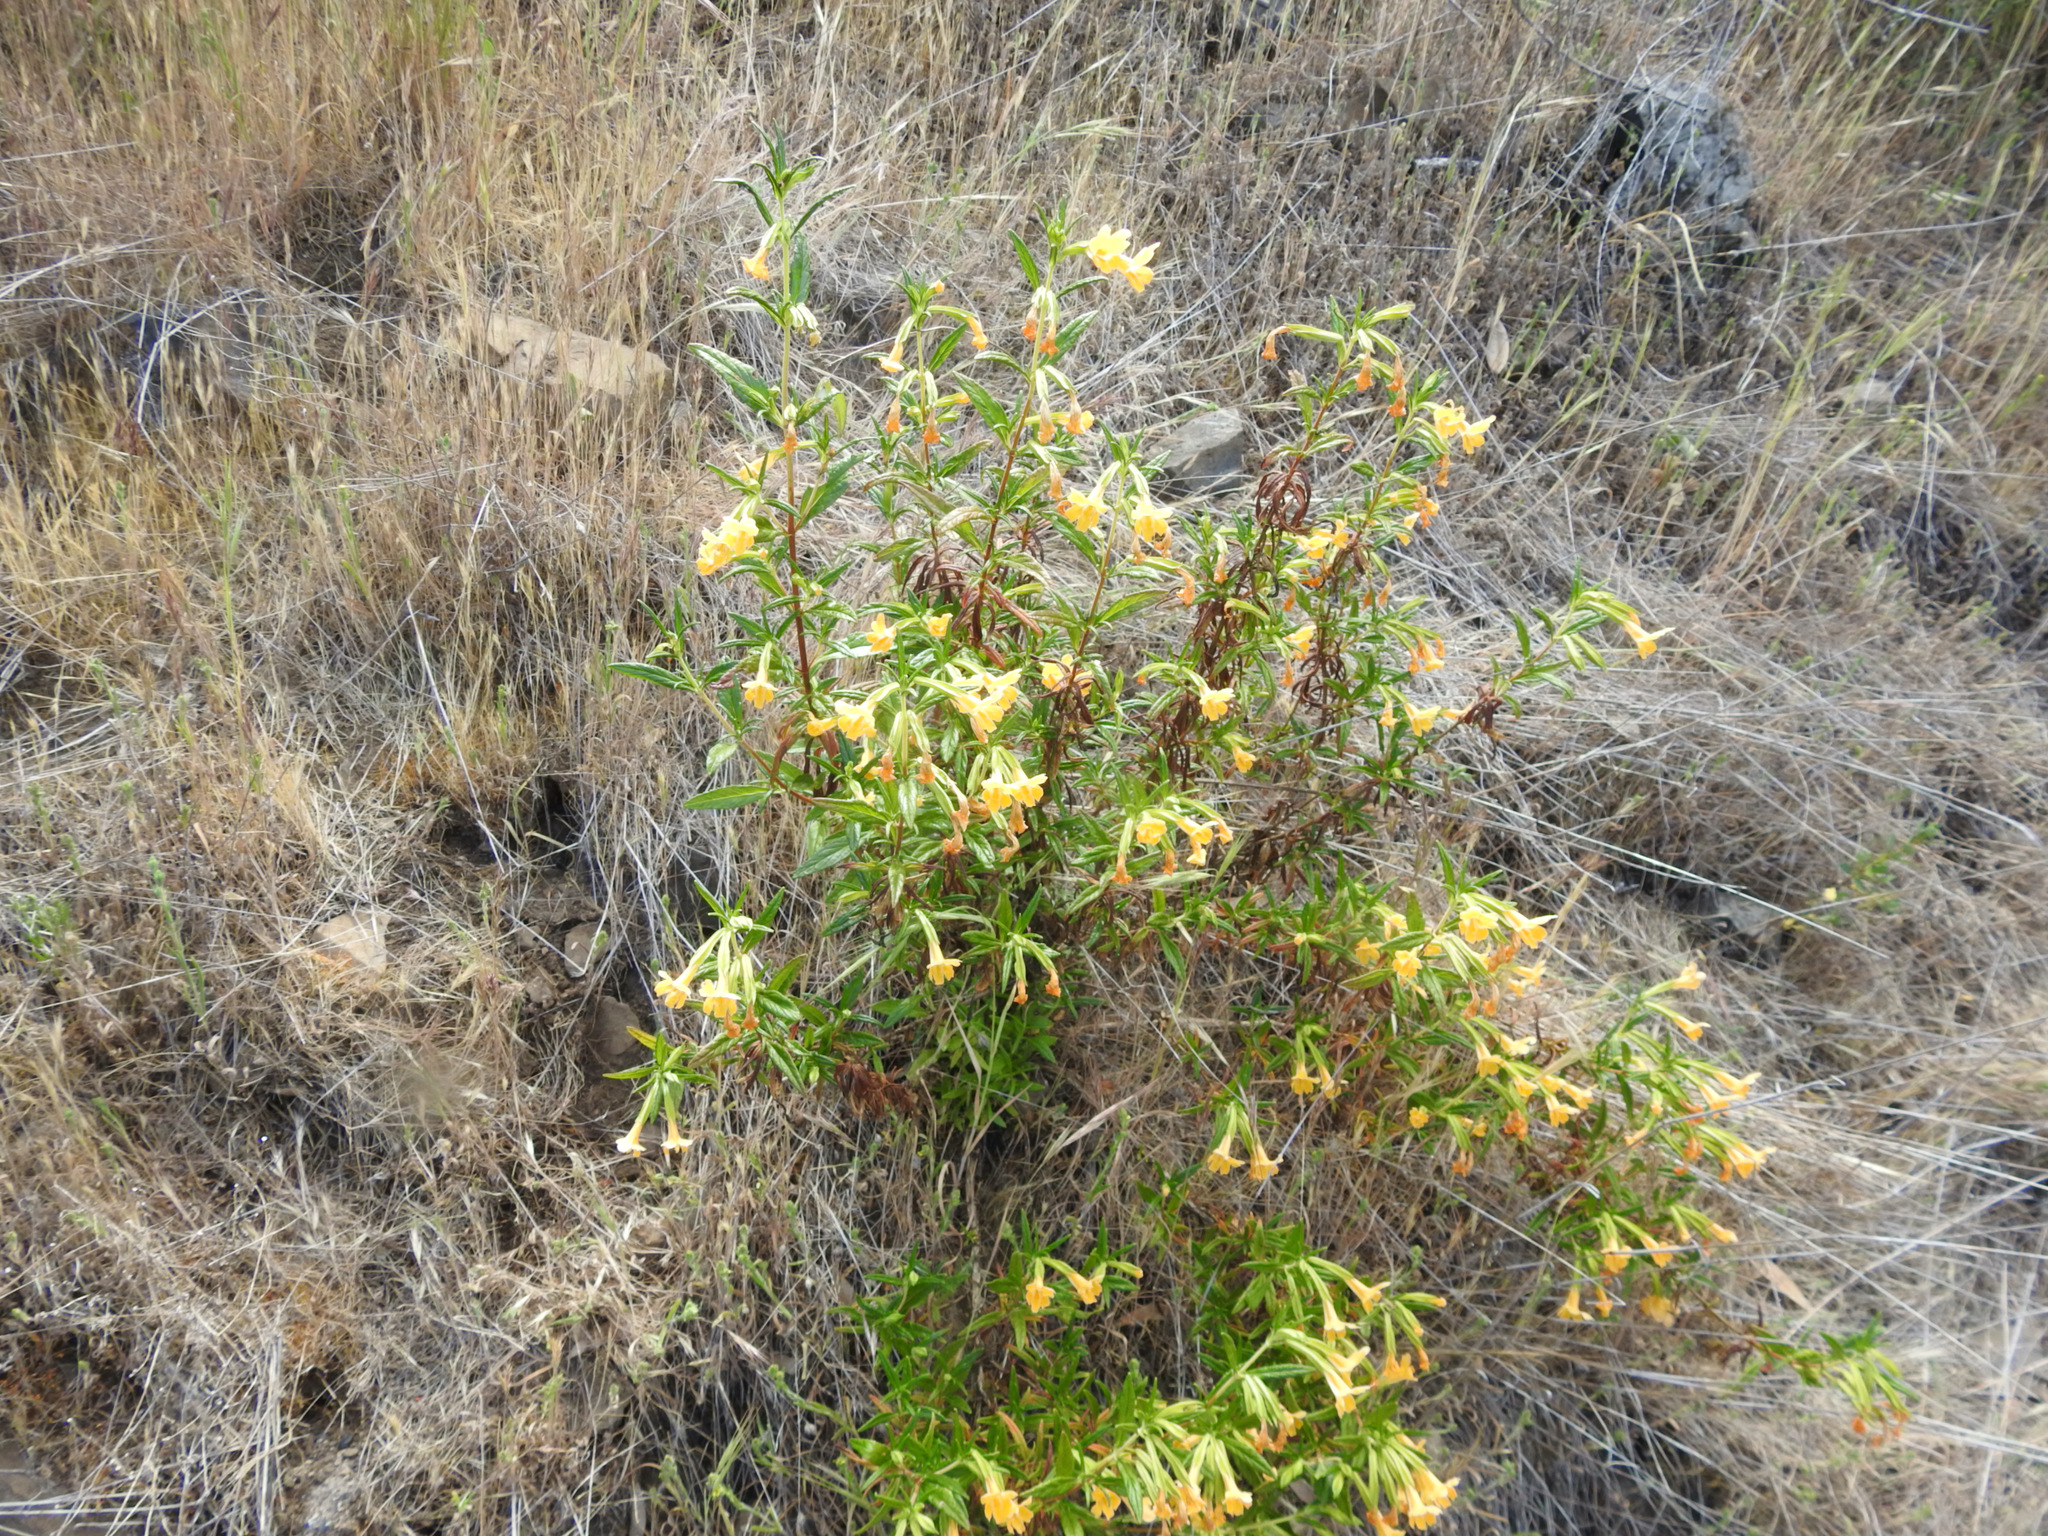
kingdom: Plantae
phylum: Tracheophyta
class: Magnoliopsida
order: Lamiales
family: Phrymaceae
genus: Diplacus
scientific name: Diplacus aurantiacus
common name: Bush monkey-flower
